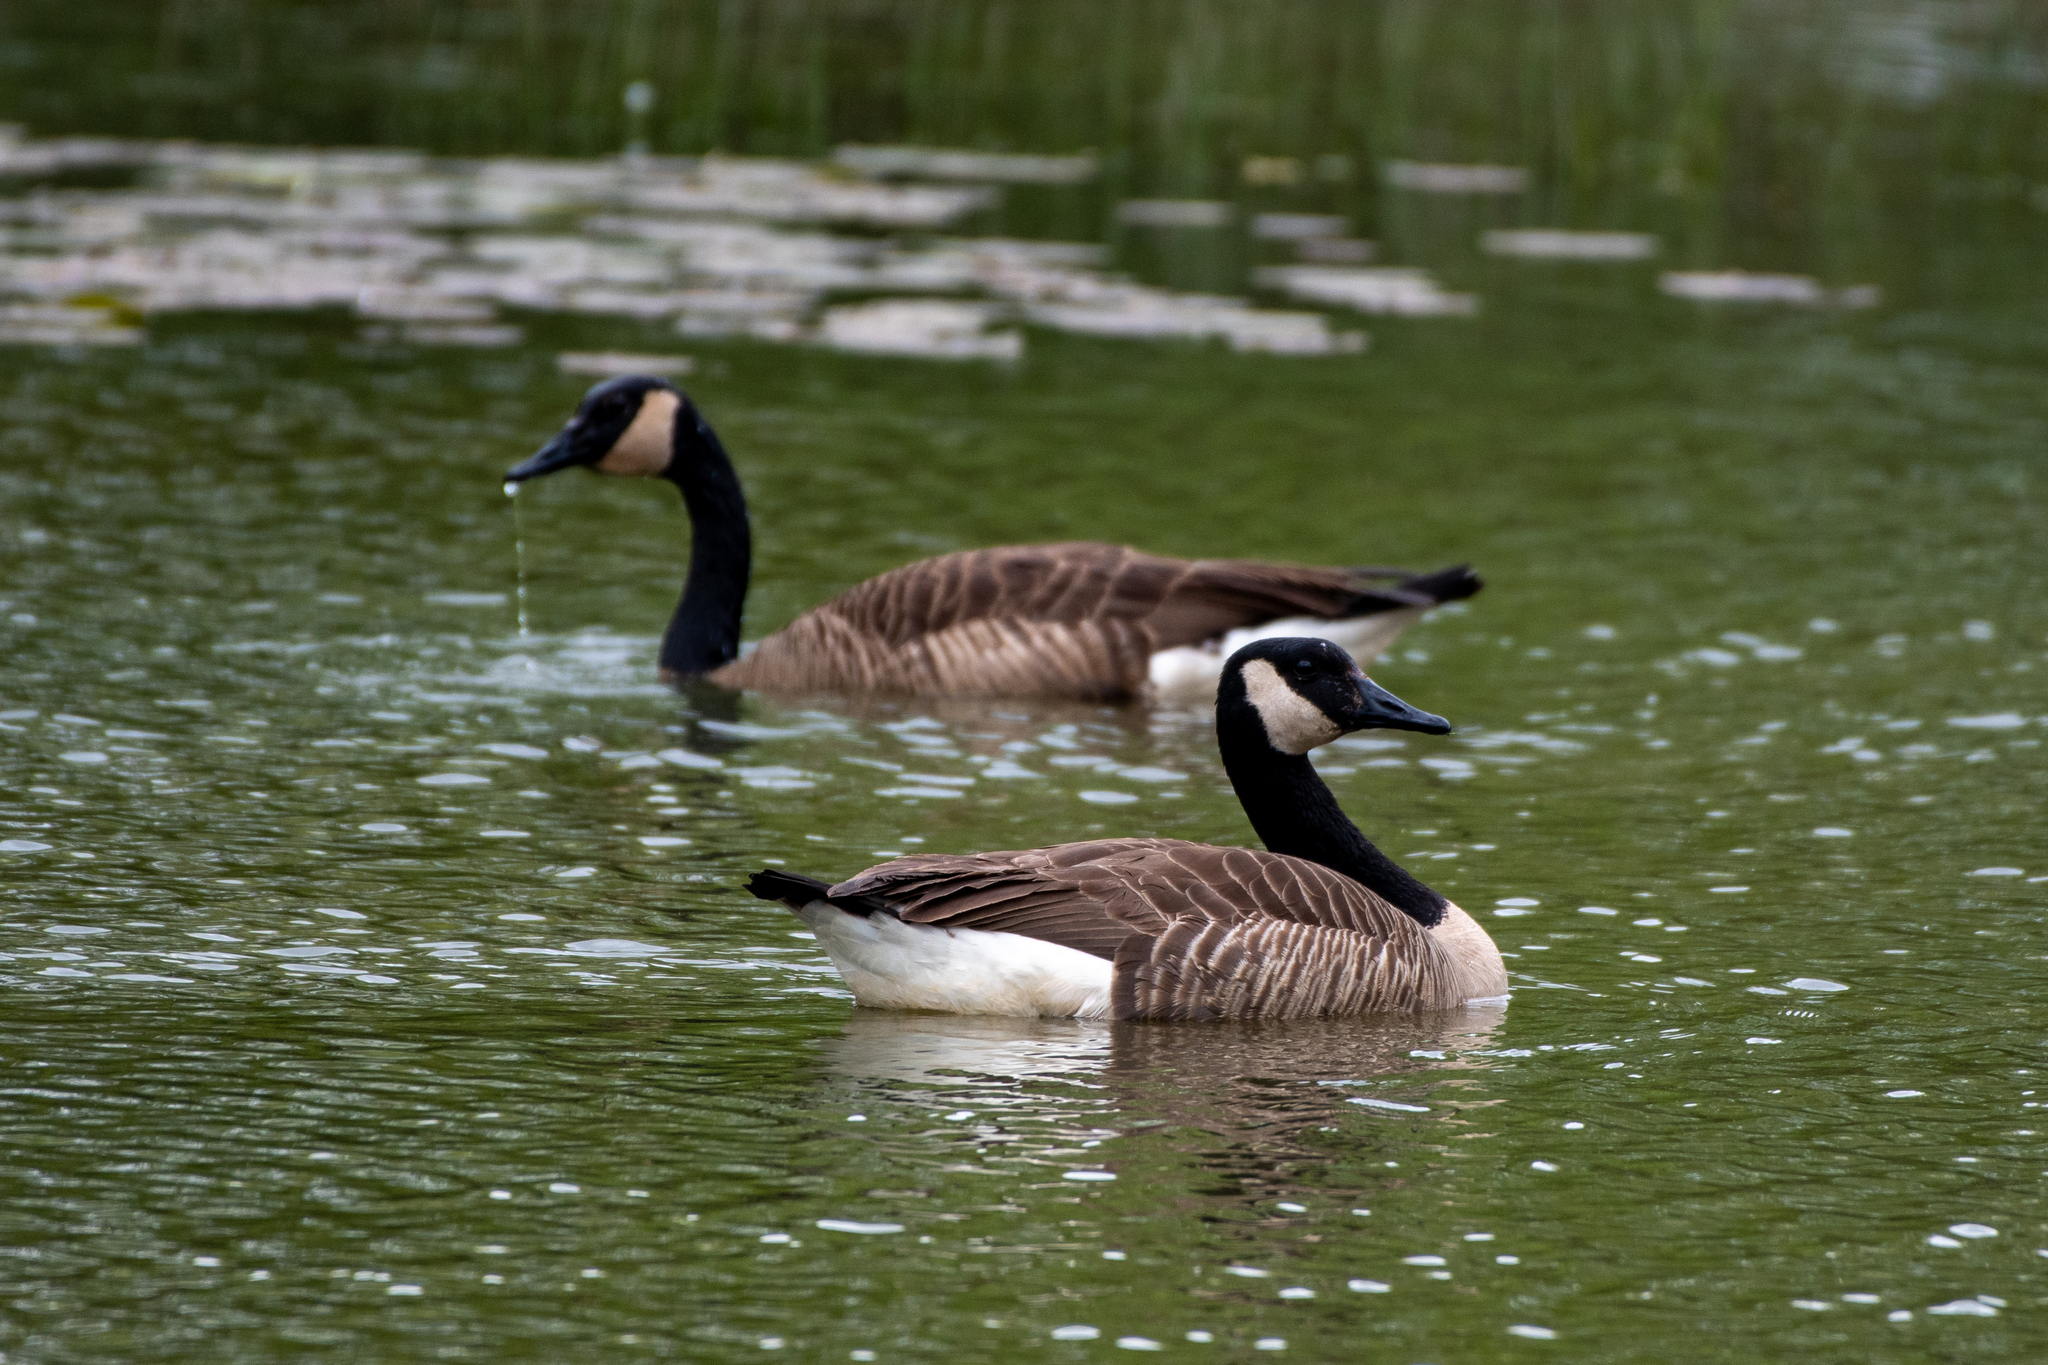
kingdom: Animalia
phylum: Chordata
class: Aves
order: Anseriformes
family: Anatidae
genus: Branta
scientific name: Branta canadensis
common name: Canada goose
